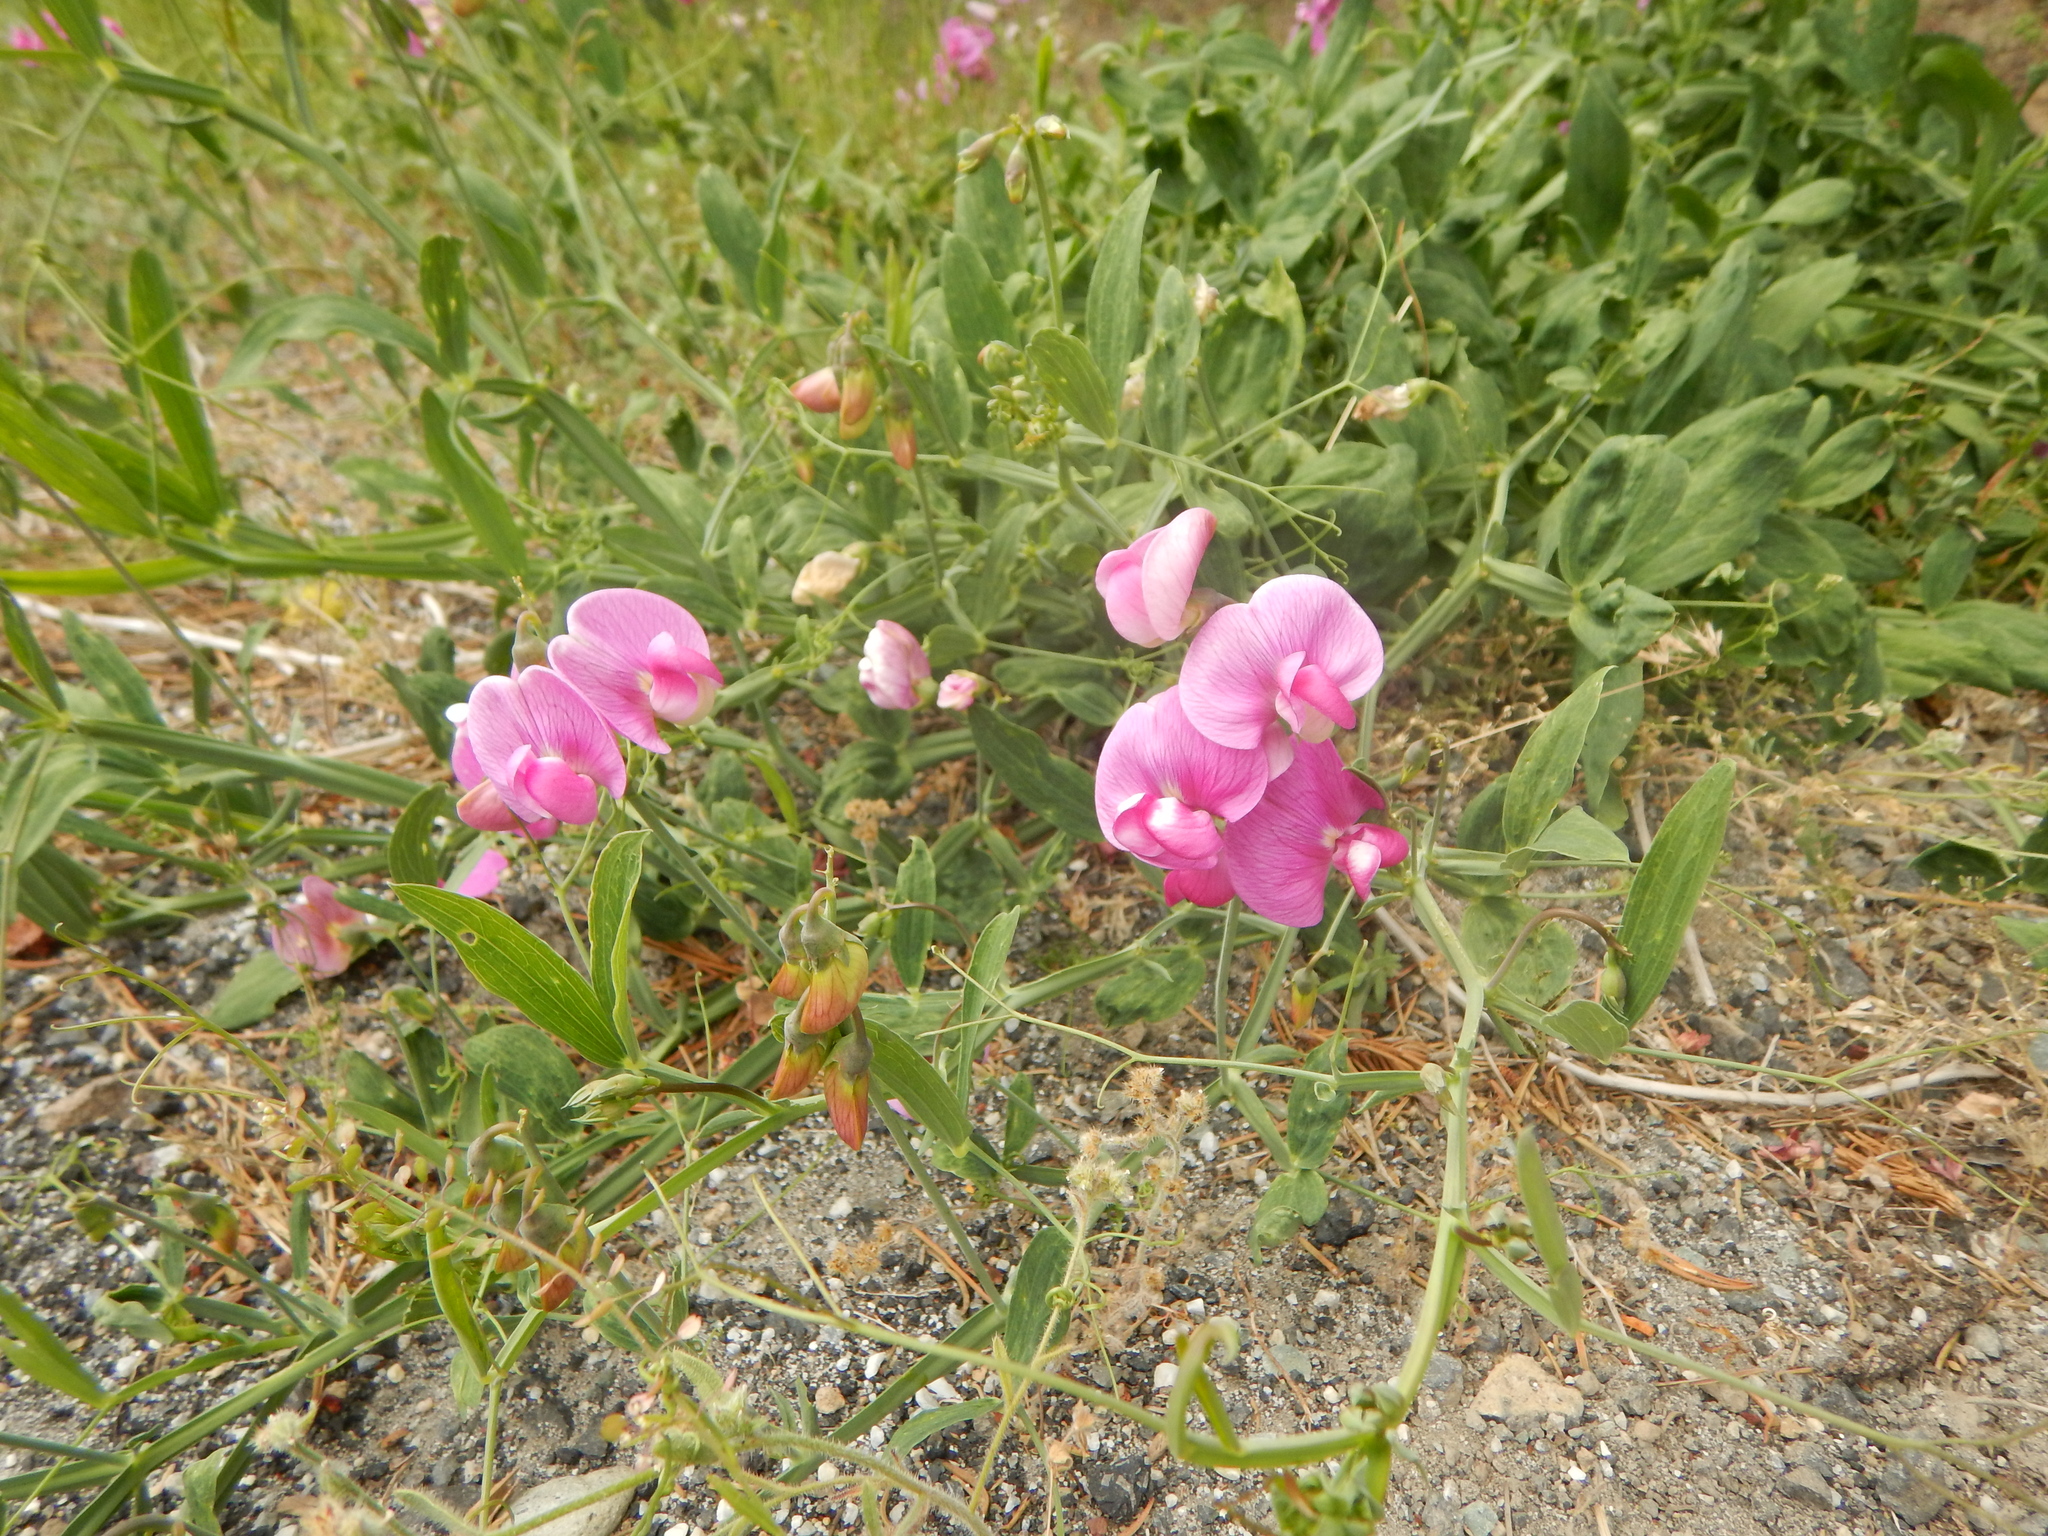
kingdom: Plantae
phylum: Tracheophyta
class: Magnoliopsida
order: Fabales
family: Fabaceae
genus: Lathyrus
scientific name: Lathyrus latifolius
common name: Perennial pea
